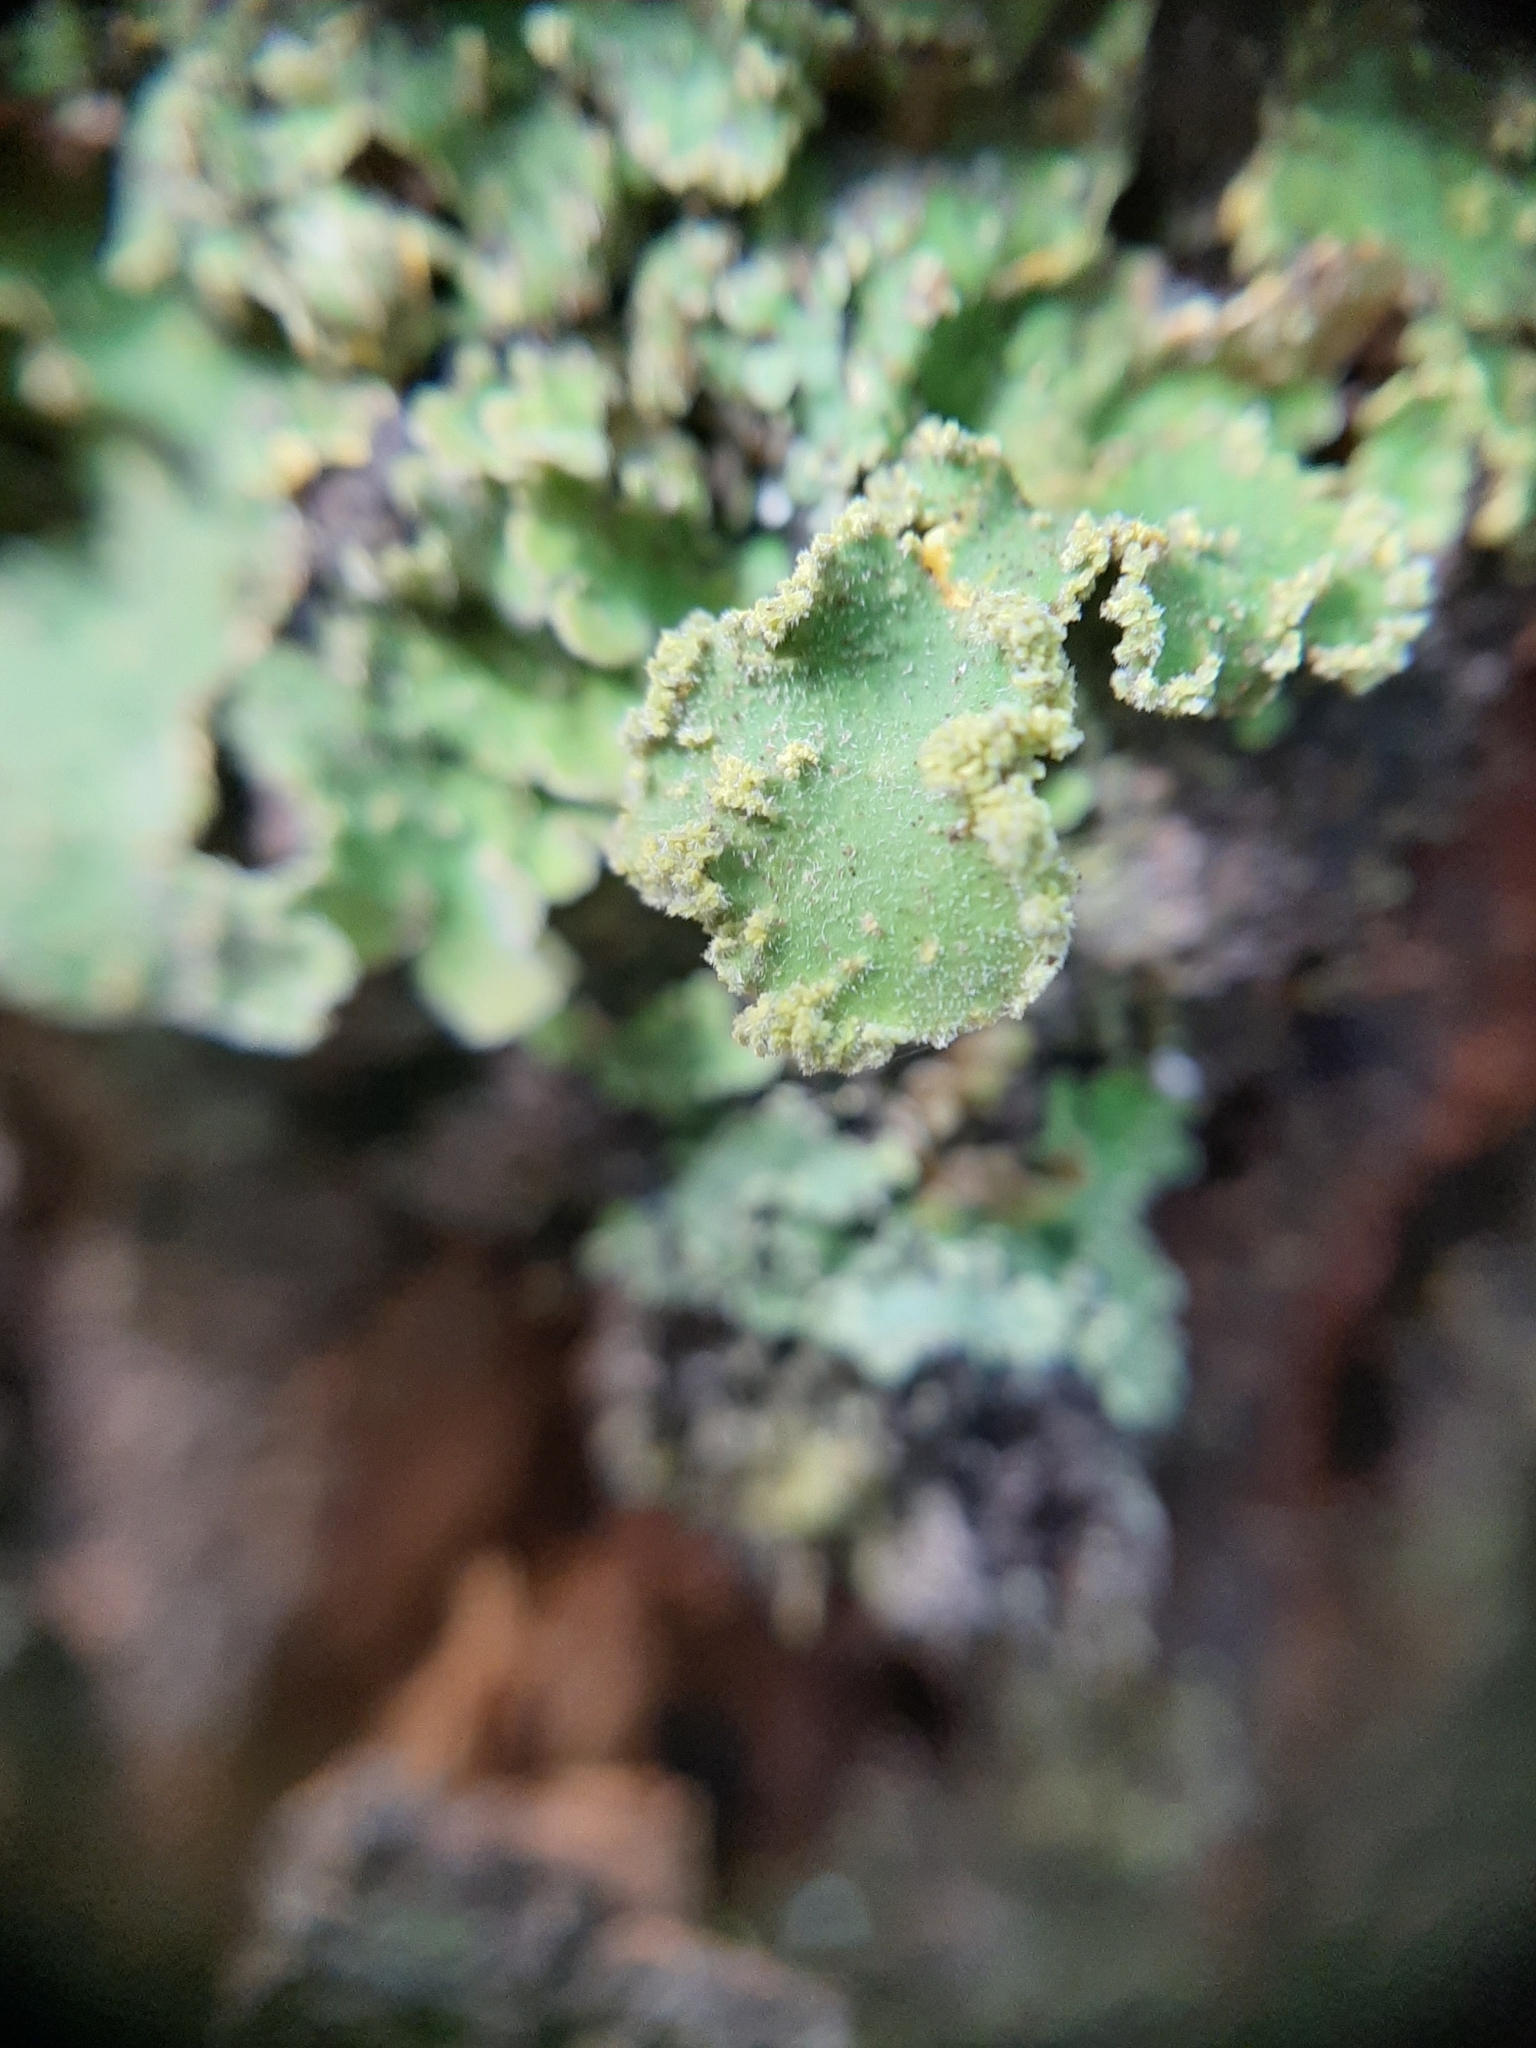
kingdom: Fungi
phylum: Ascomycota
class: Lecanoromycetes
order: Peltigerales
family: Lobariaceae
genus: Pseudocyphellaria
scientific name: Pseudocyphellaria rubella
